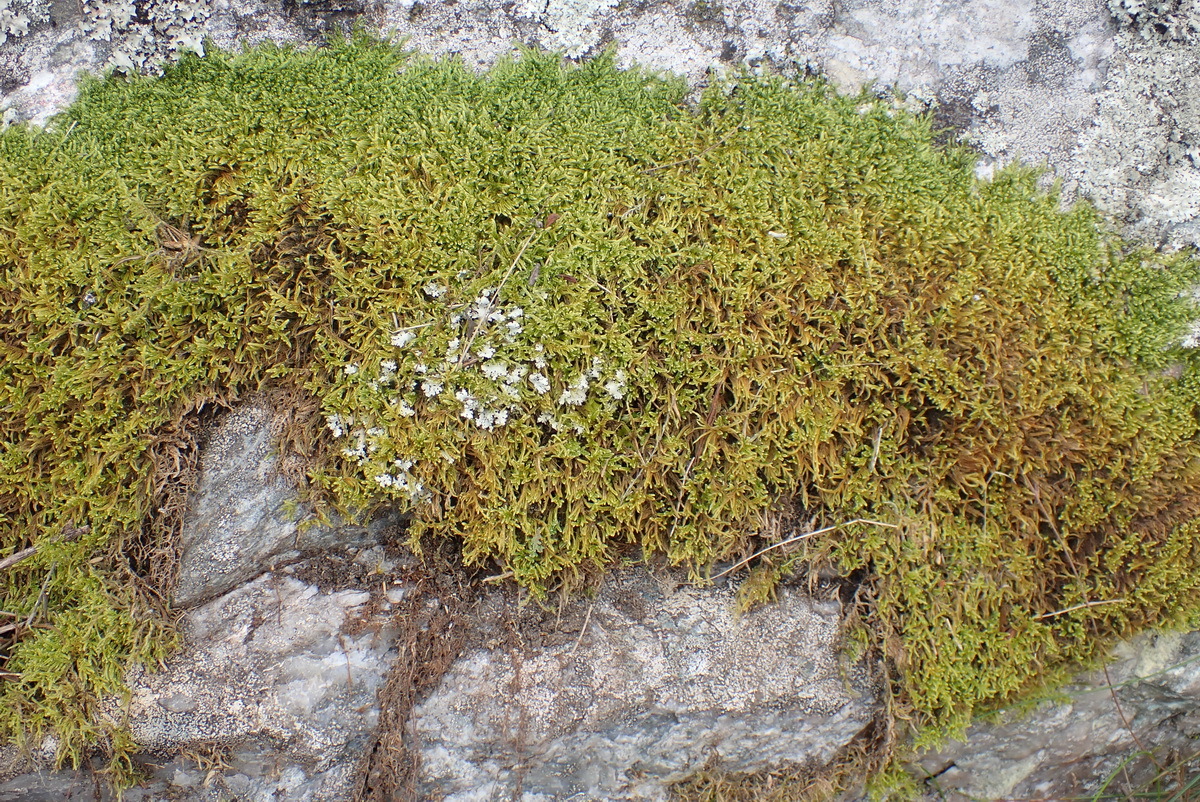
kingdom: Plantae
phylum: Bryophyta
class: Bryopsida
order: Hypnales
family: Hypnaceae
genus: Hypnum
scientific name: Hypnum cupressiforme
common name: Cypress-leaved plait-moss
